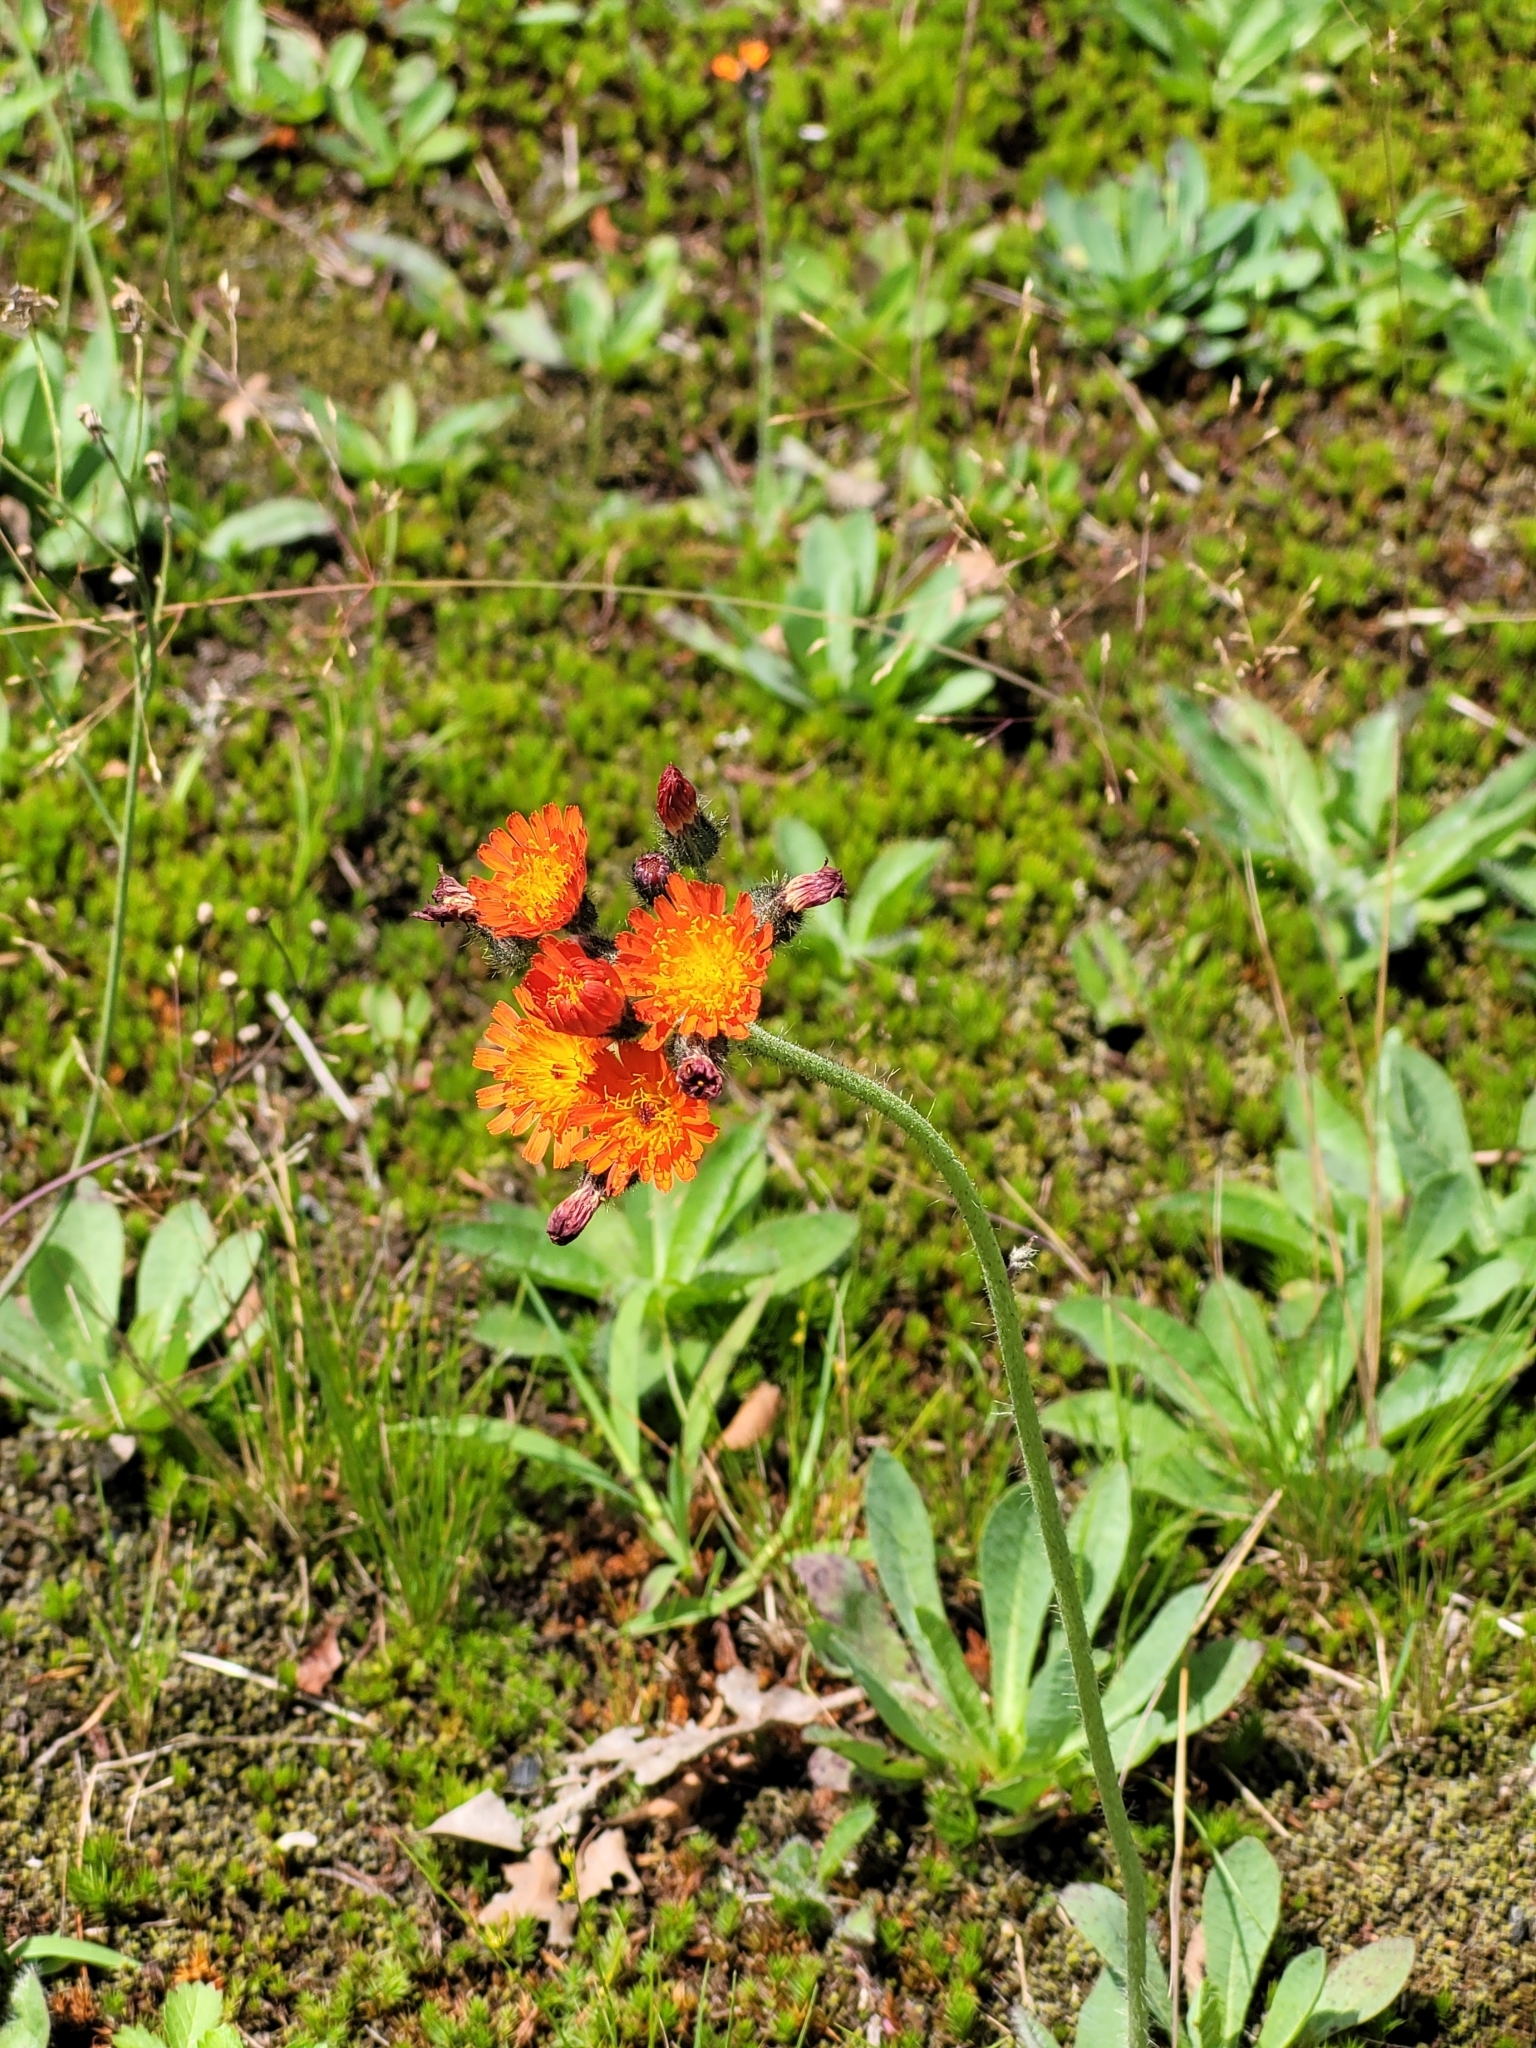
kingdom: Plantae
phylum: Tracheophyta
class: Magnoliopsida
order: Asterales
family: Asteraceae
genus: Pilosella
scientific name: Pilosella aurantiaca
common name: Fox-and-cubs
